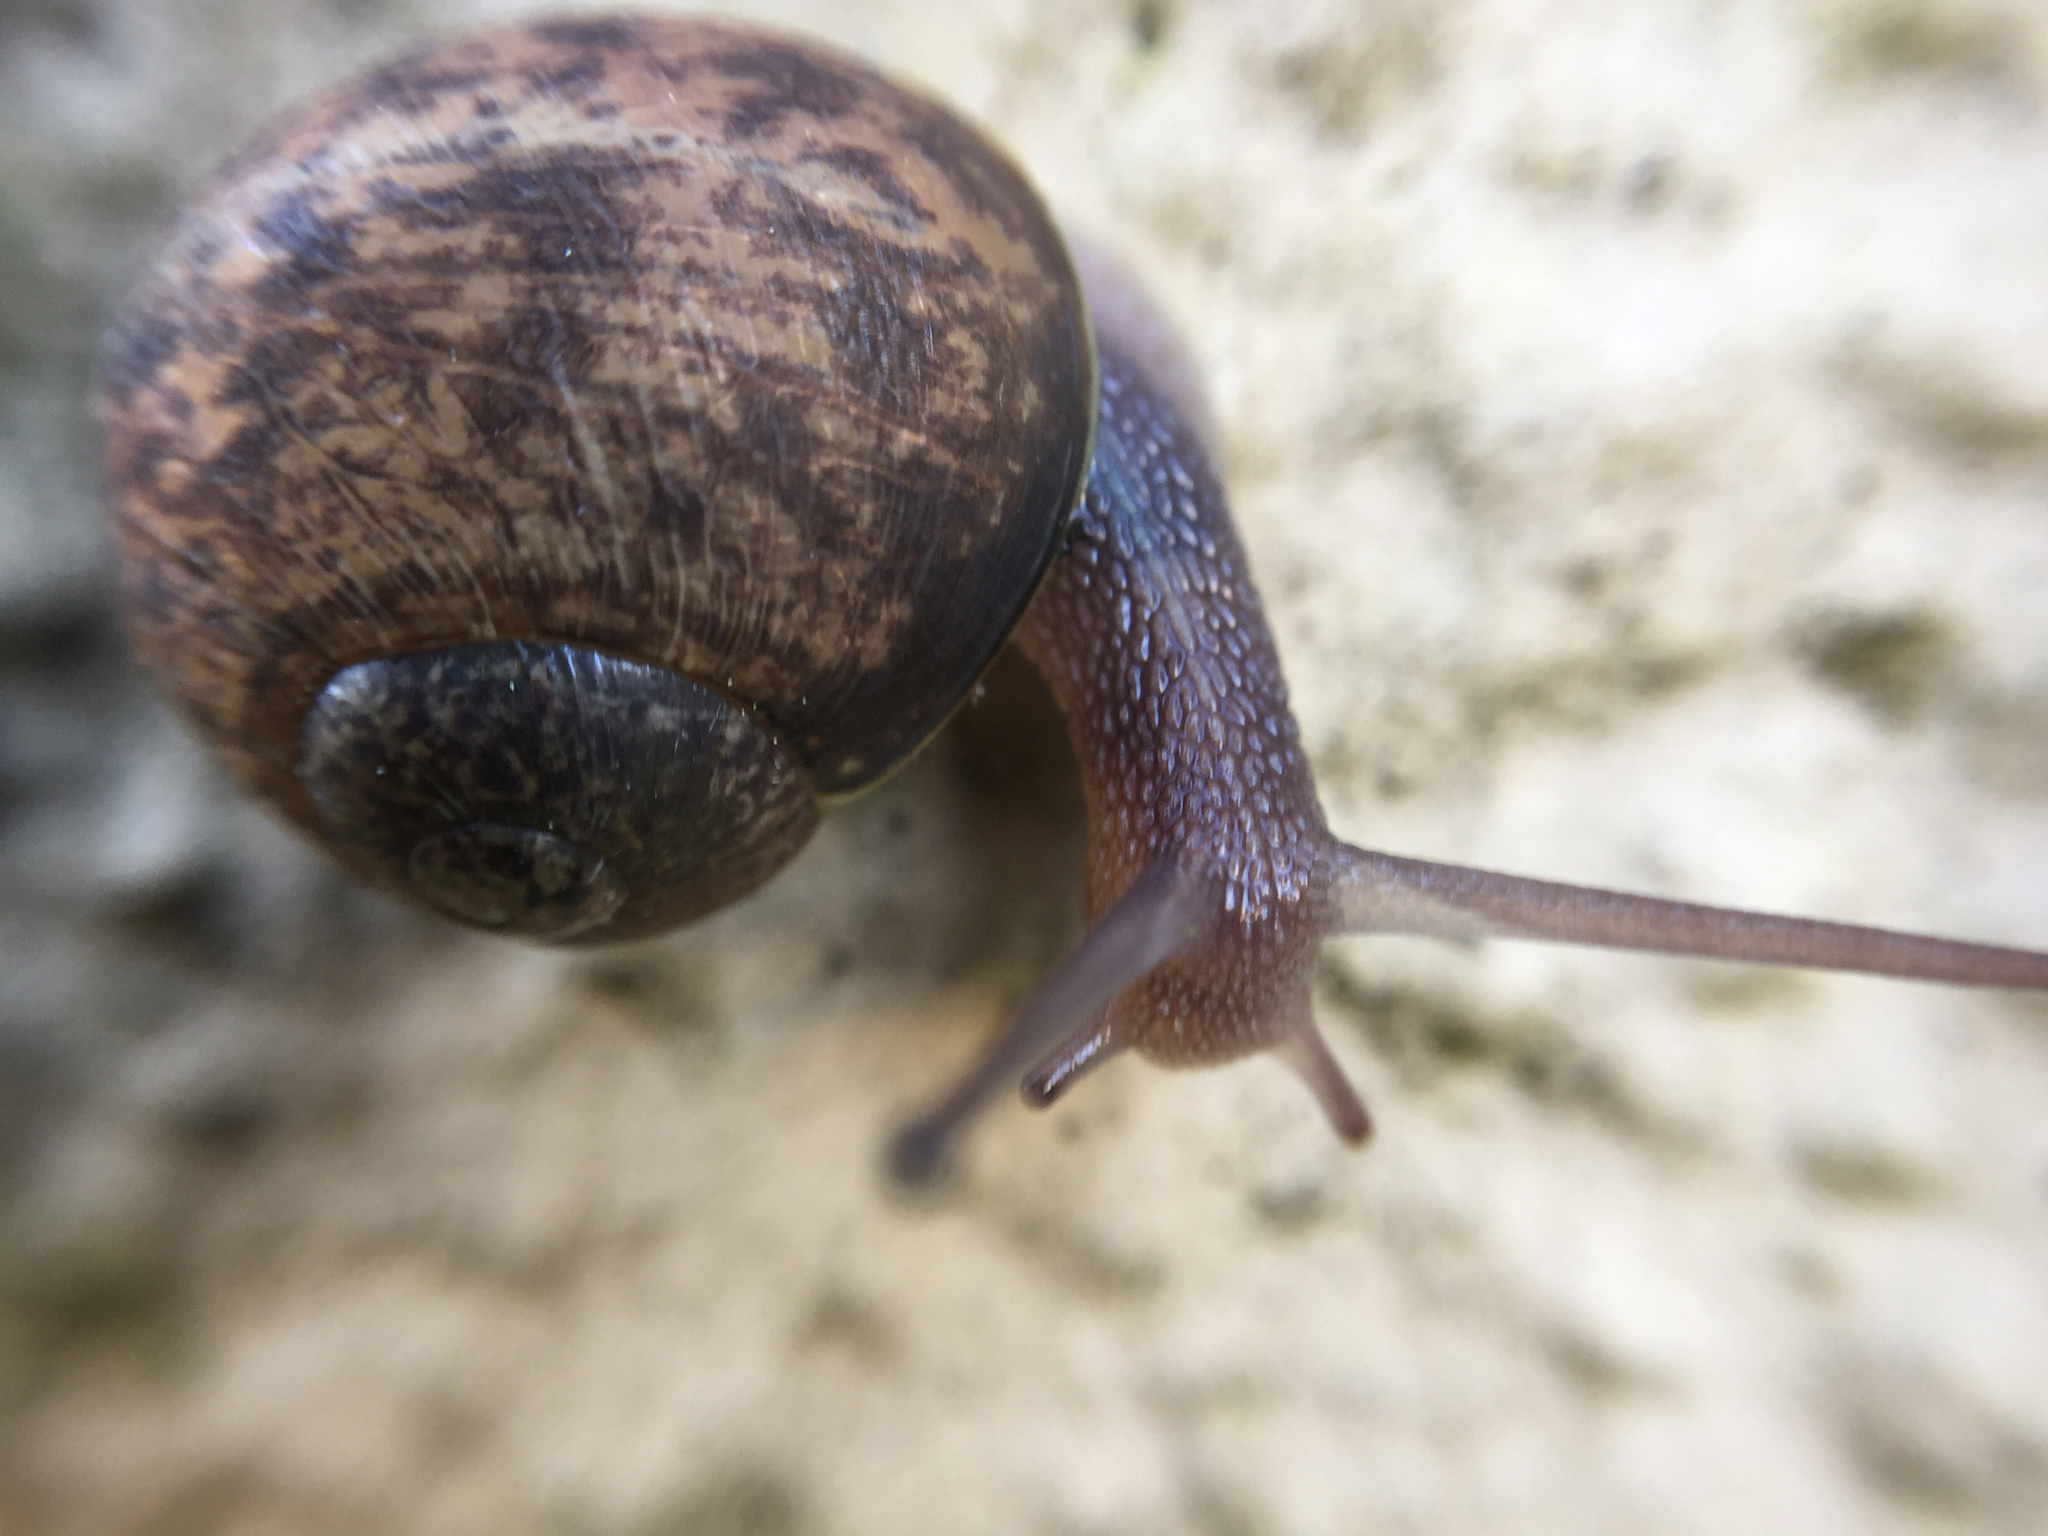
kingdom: Animalia
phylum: Mollusca
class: Gastropoda
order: Stylommatophora
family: Helicidae
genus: Cornu
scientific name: Cornu aspersum
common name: Brown garden snail
